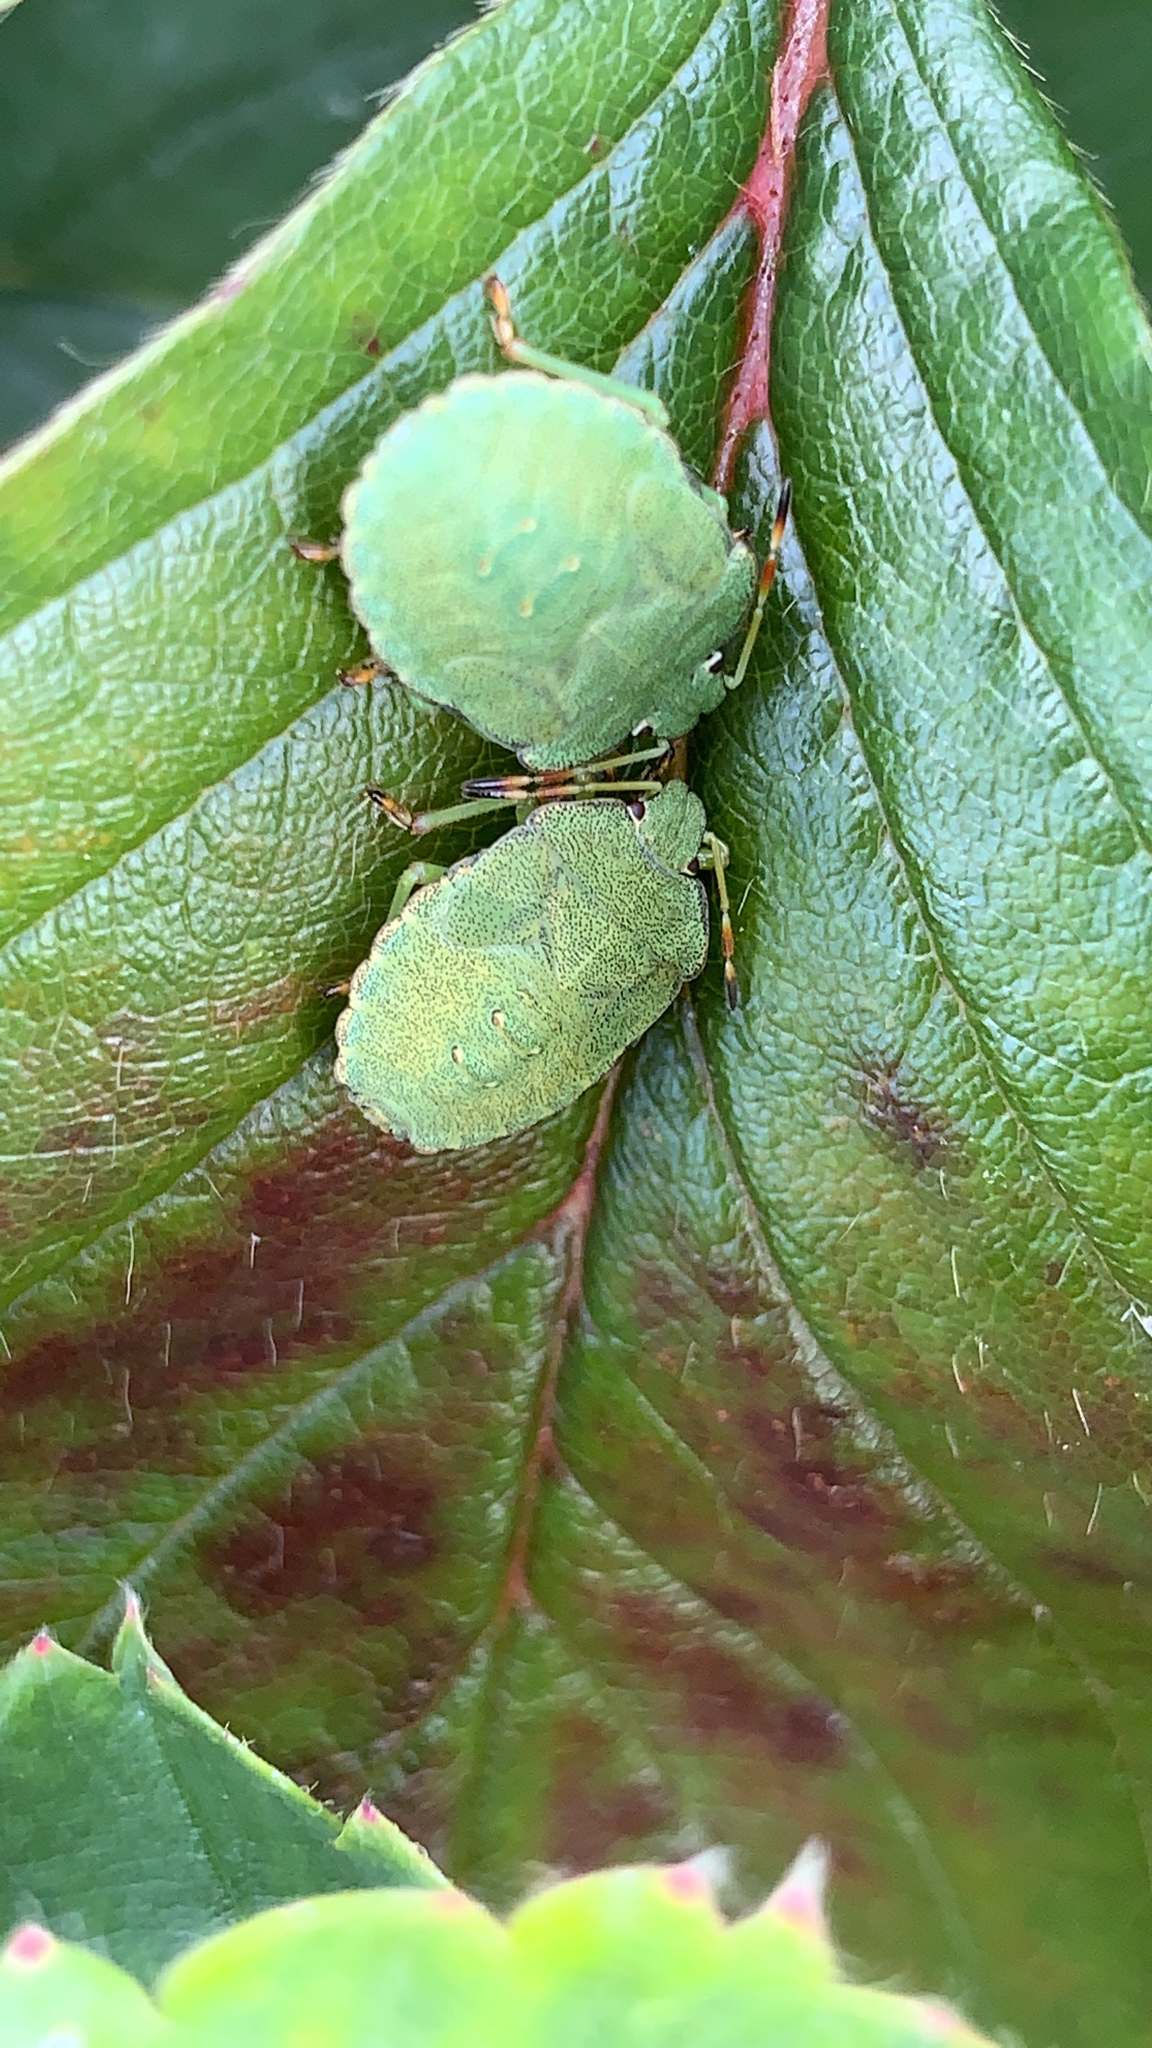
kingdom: Animalia
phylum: Arthropoda
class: Insecta
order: Hemiptera
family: Pentatomidae
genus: Palomena
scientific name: Palomena prasina
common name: Green shieldbug
